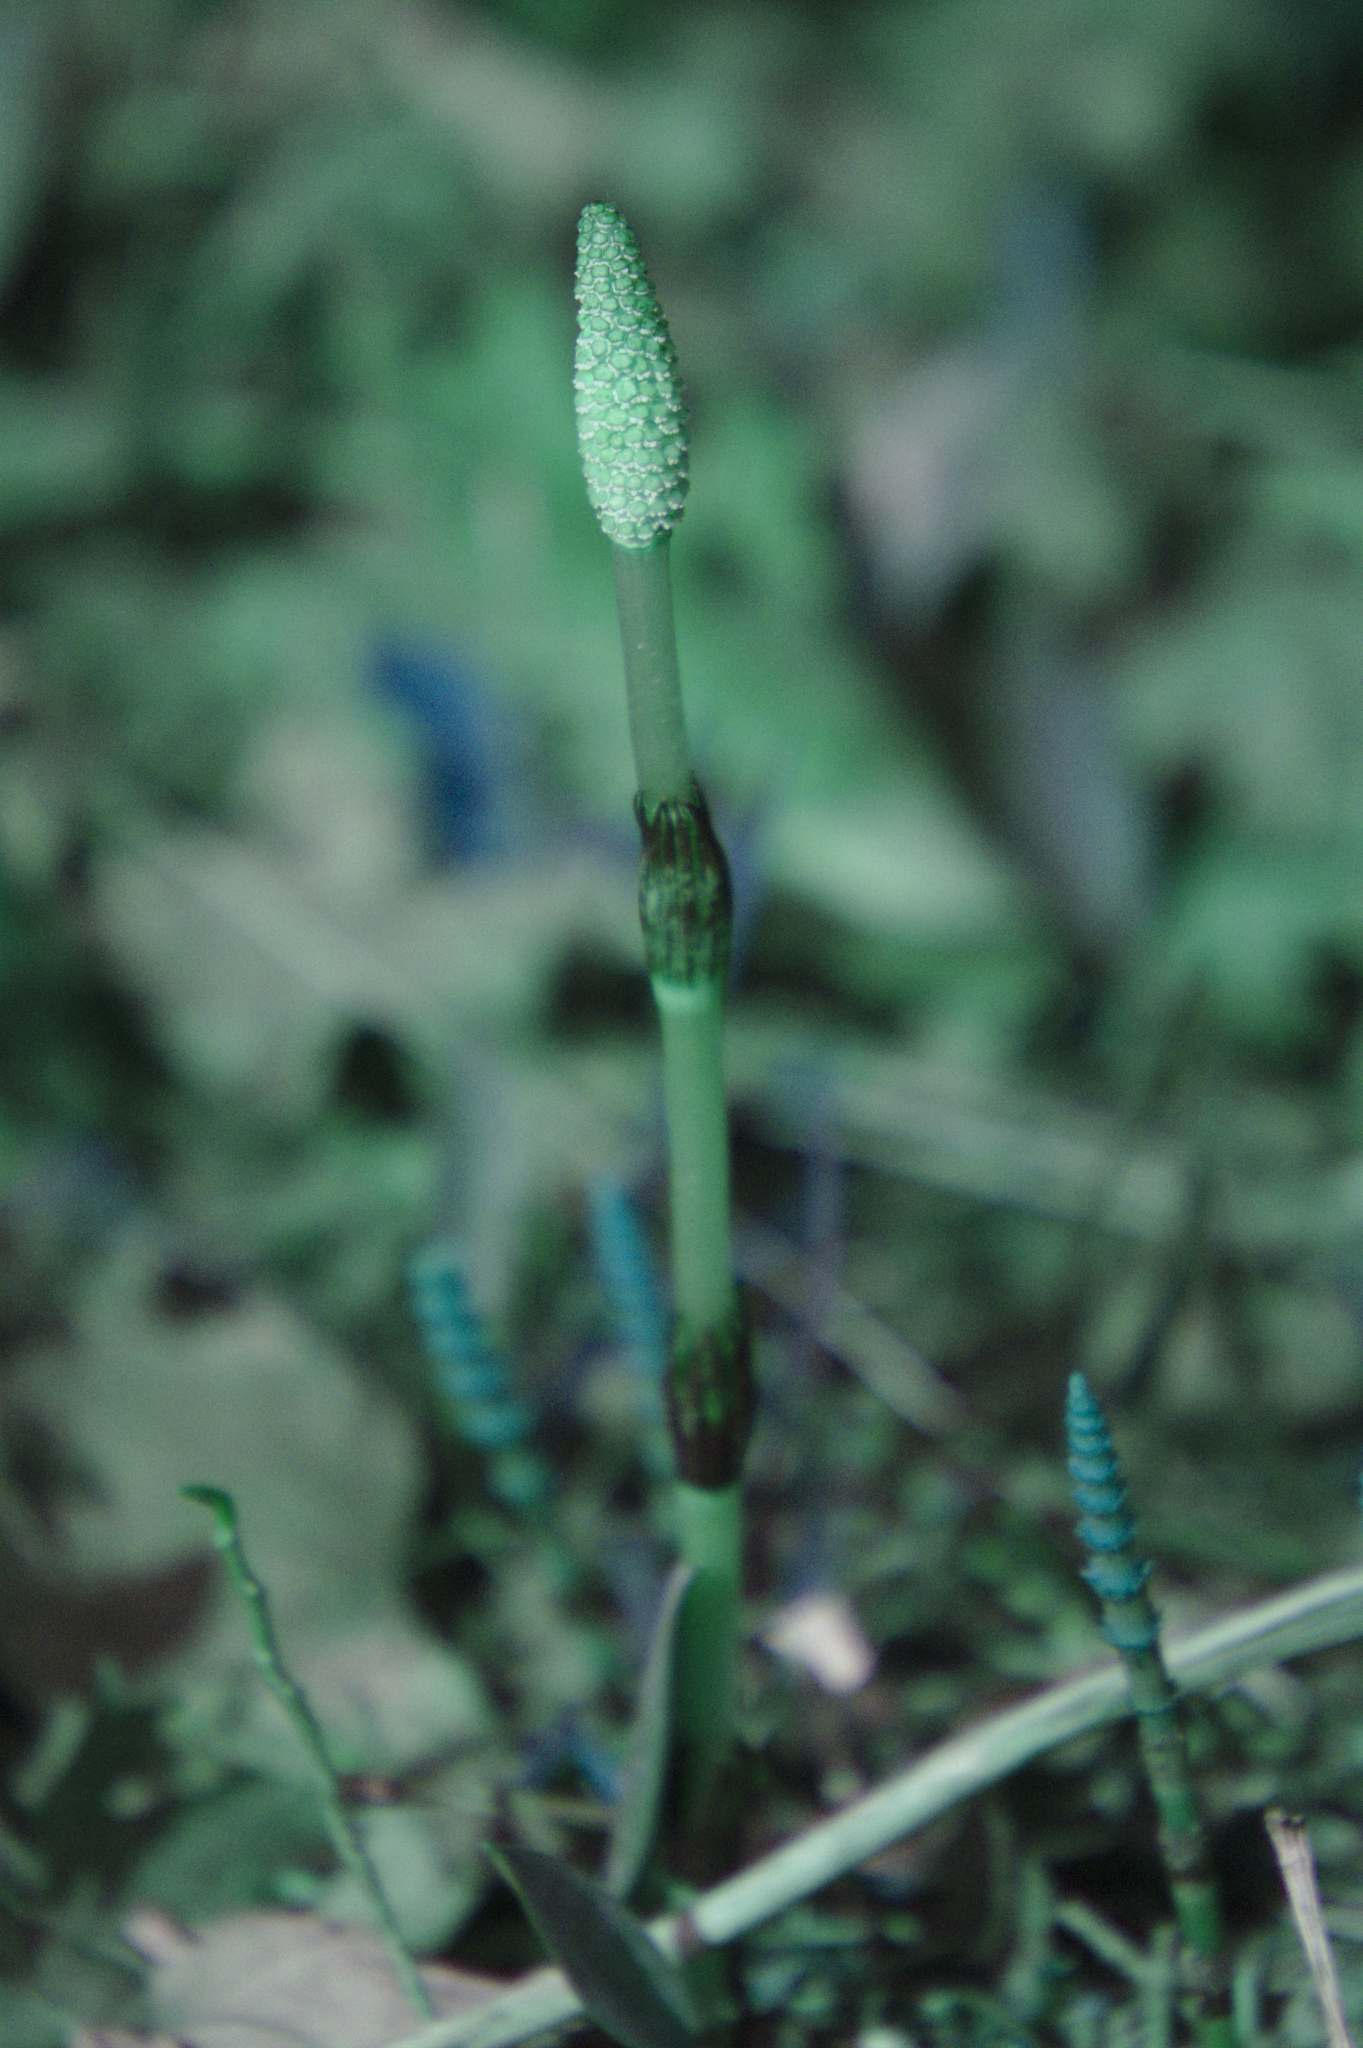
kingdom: Plantae
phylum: Tracheophyta
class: Polypodiopsida
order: Equisetales
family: Equisetaceae
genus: Equisetum
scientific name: Equisetum arvense
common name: Field horsetail
